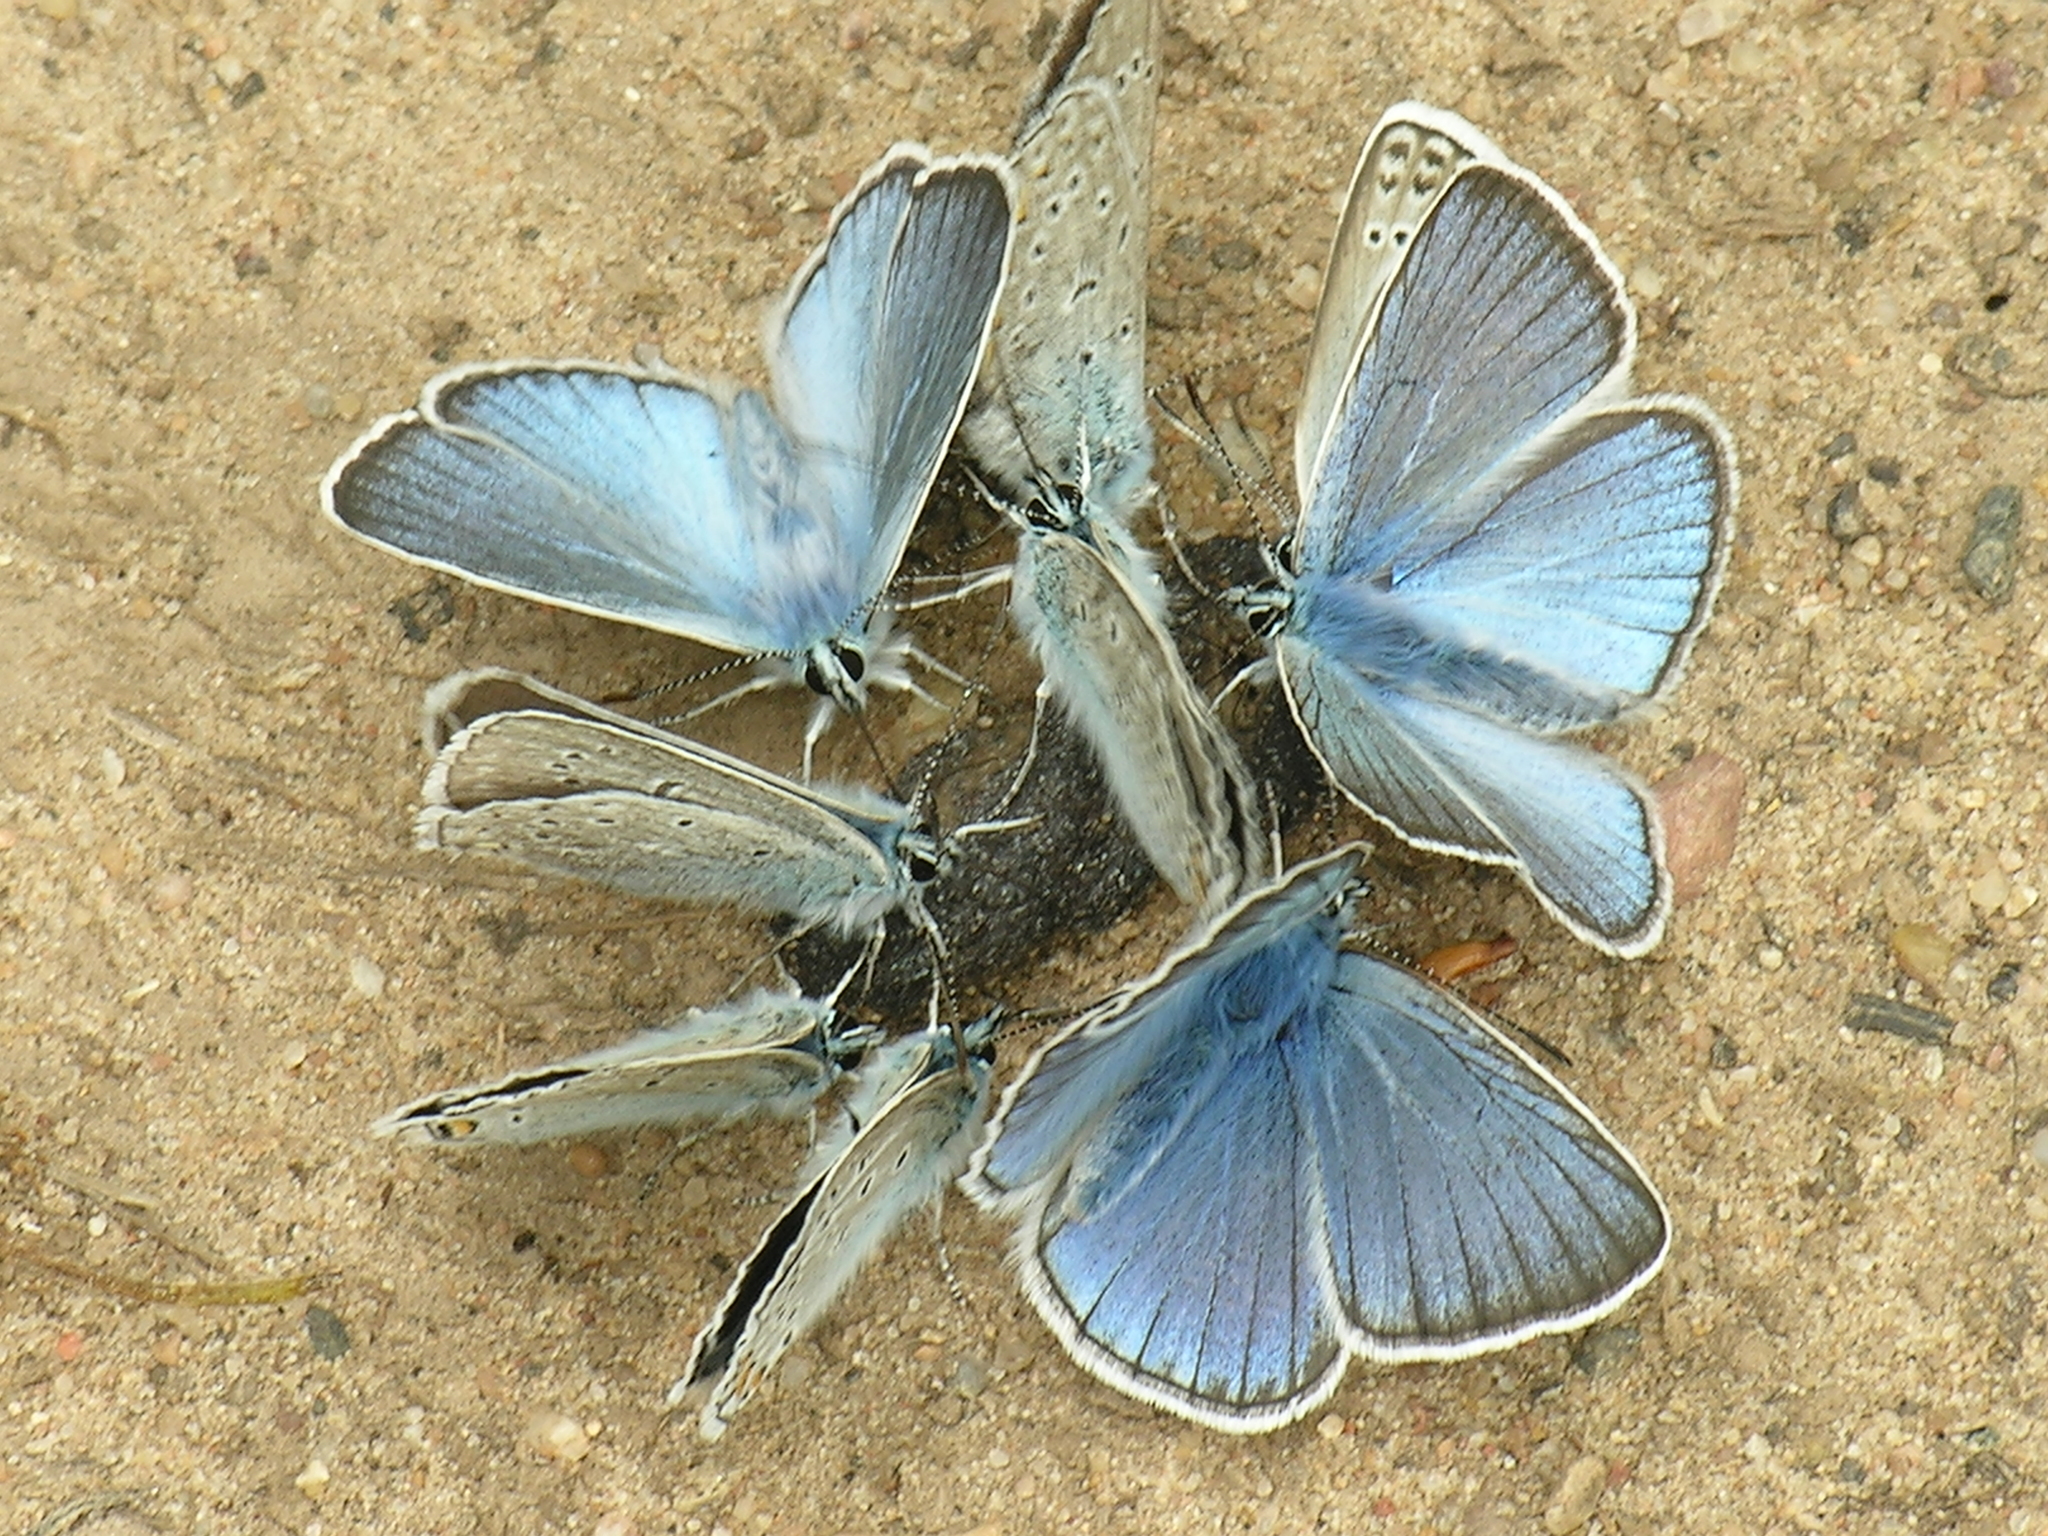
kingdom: Animalia
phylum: Arthropoda
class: Insecta
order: Lepidoptera
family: Lycaenidae
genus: Plebejus
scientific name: Plebejus amanda
